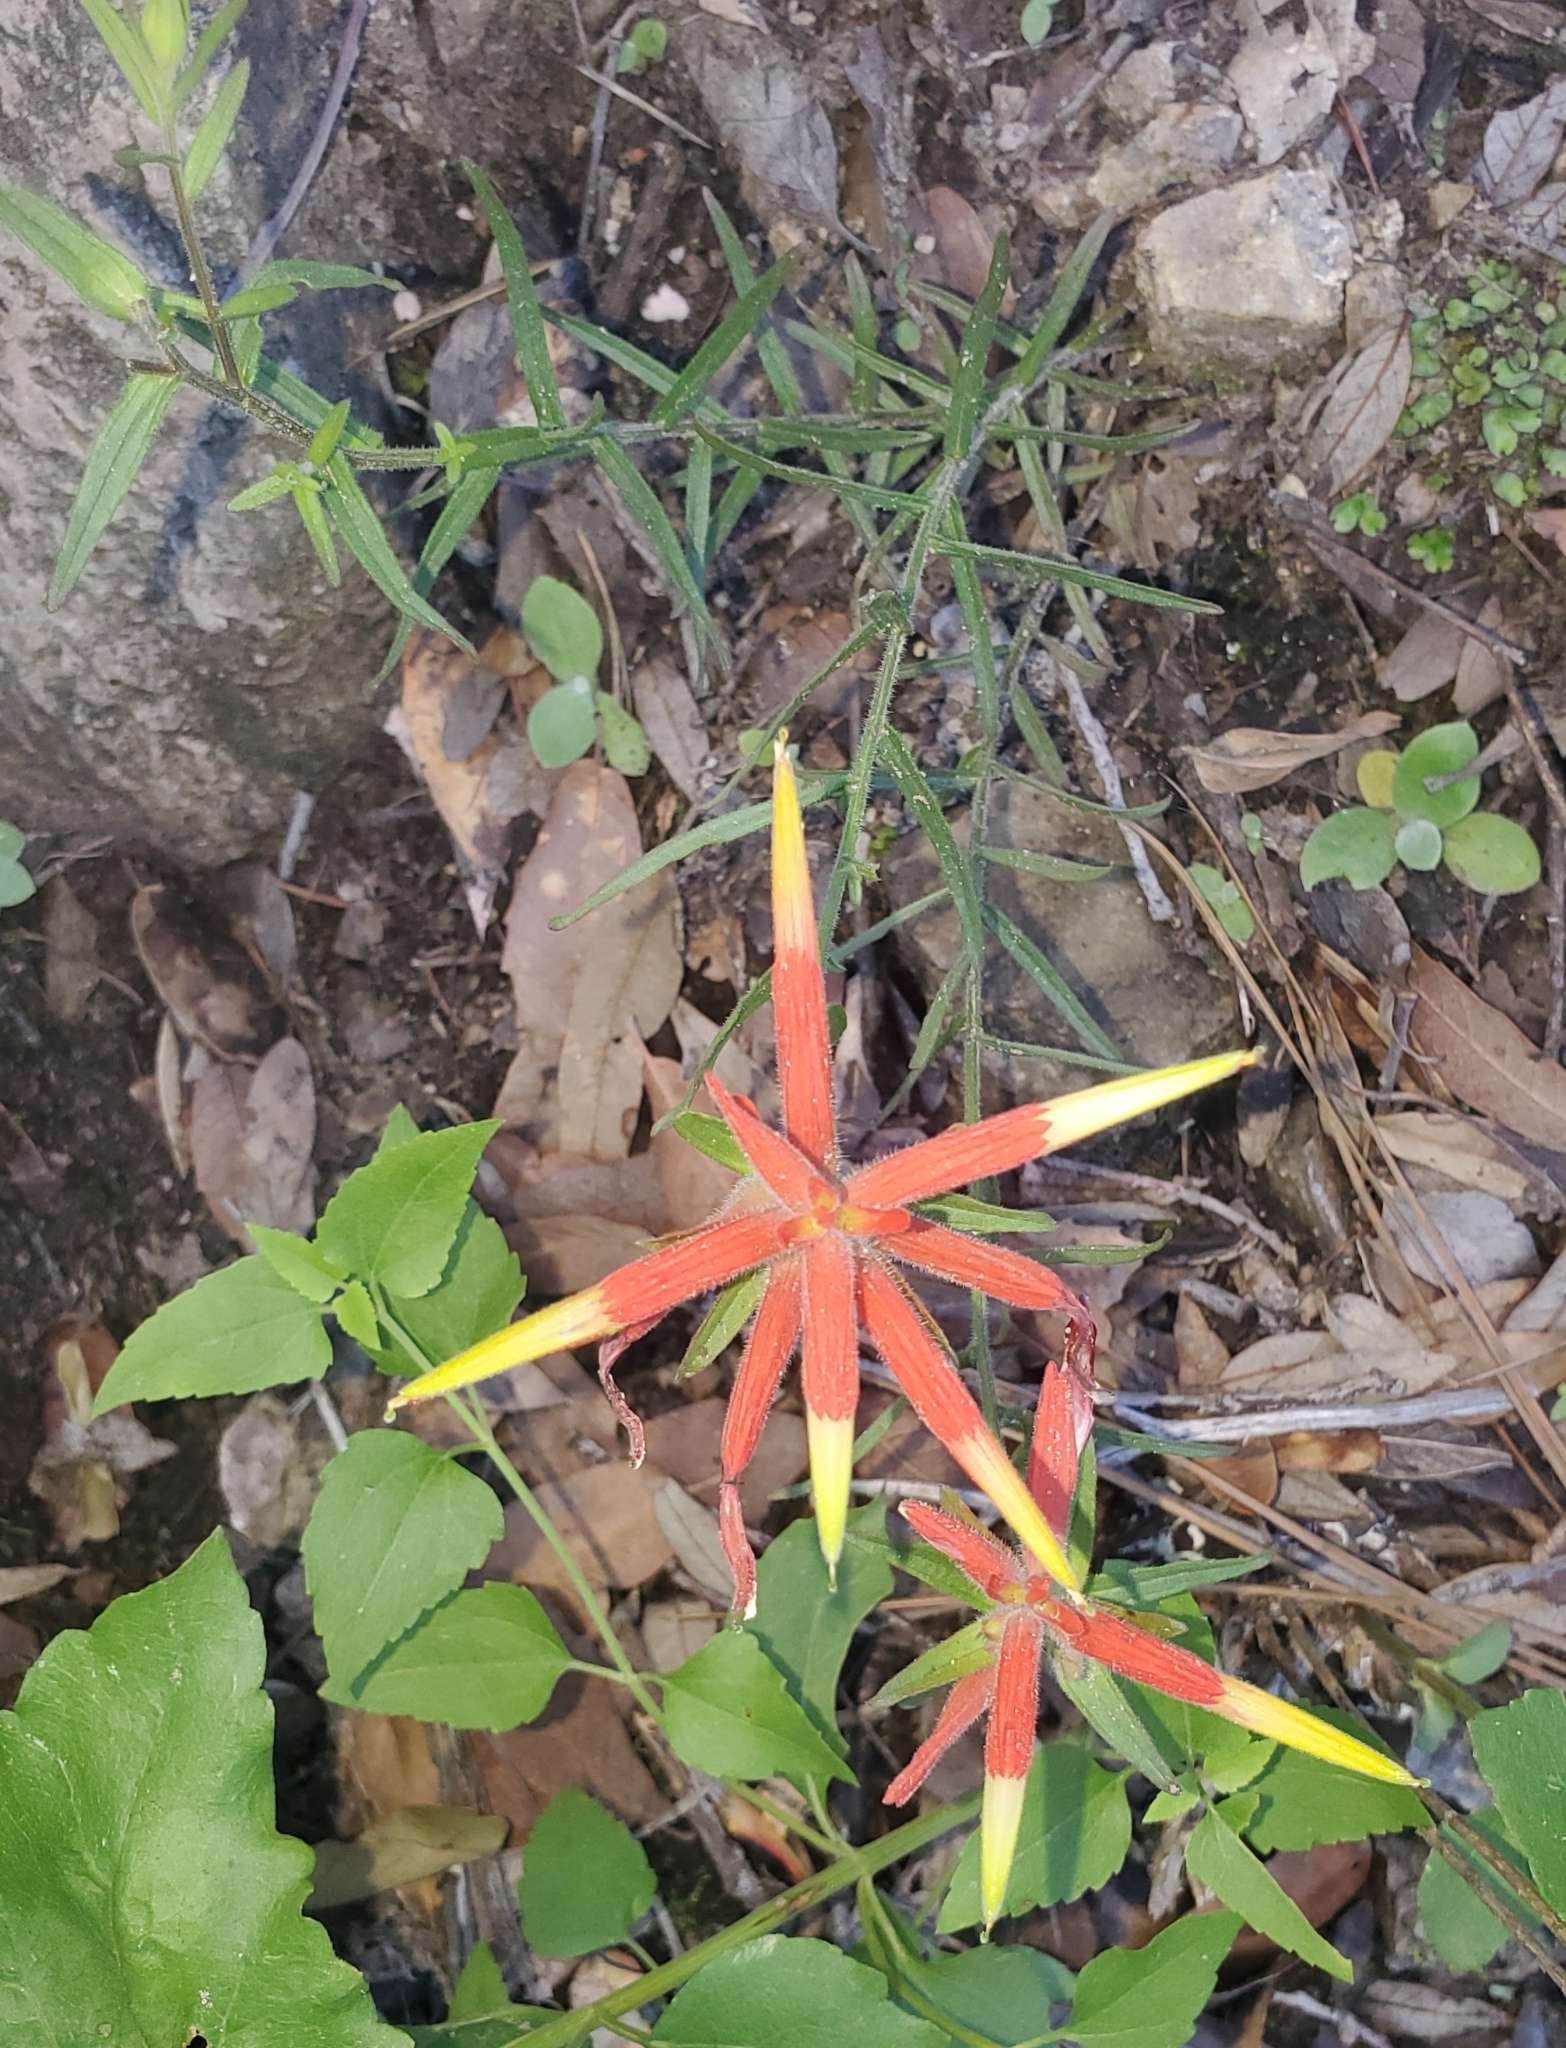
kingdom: Plantae
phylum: Tracheophyta
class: Magnoliopsida
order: Lamiales
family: Orobanchaceae
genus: Castilleja
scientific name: Castilleja tenuiflora
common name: Santa catalina indian paintbrush
